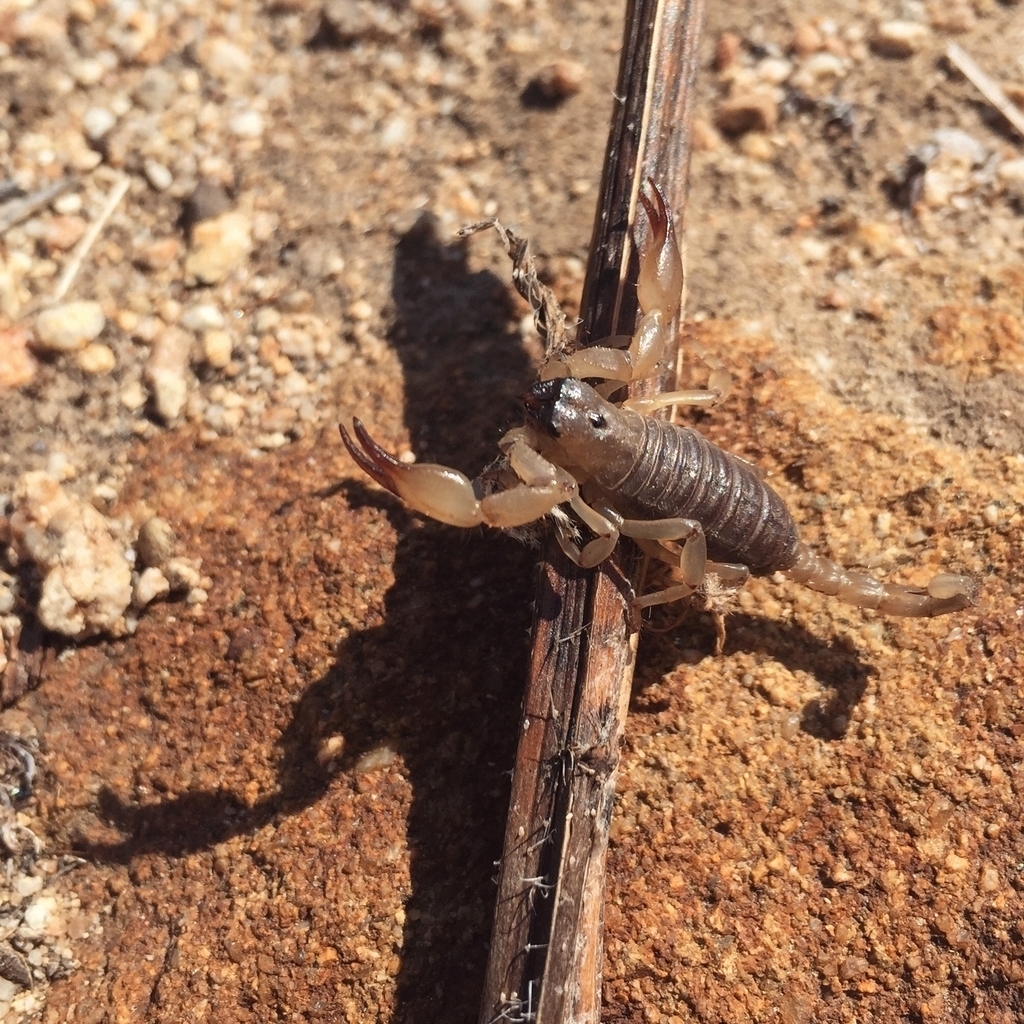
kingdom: Animalia
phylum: Arthropoda
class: Arachnida
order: Scorpiones
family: Chactidae
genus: Anuroctonus
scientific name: Anuroctonus pococki
